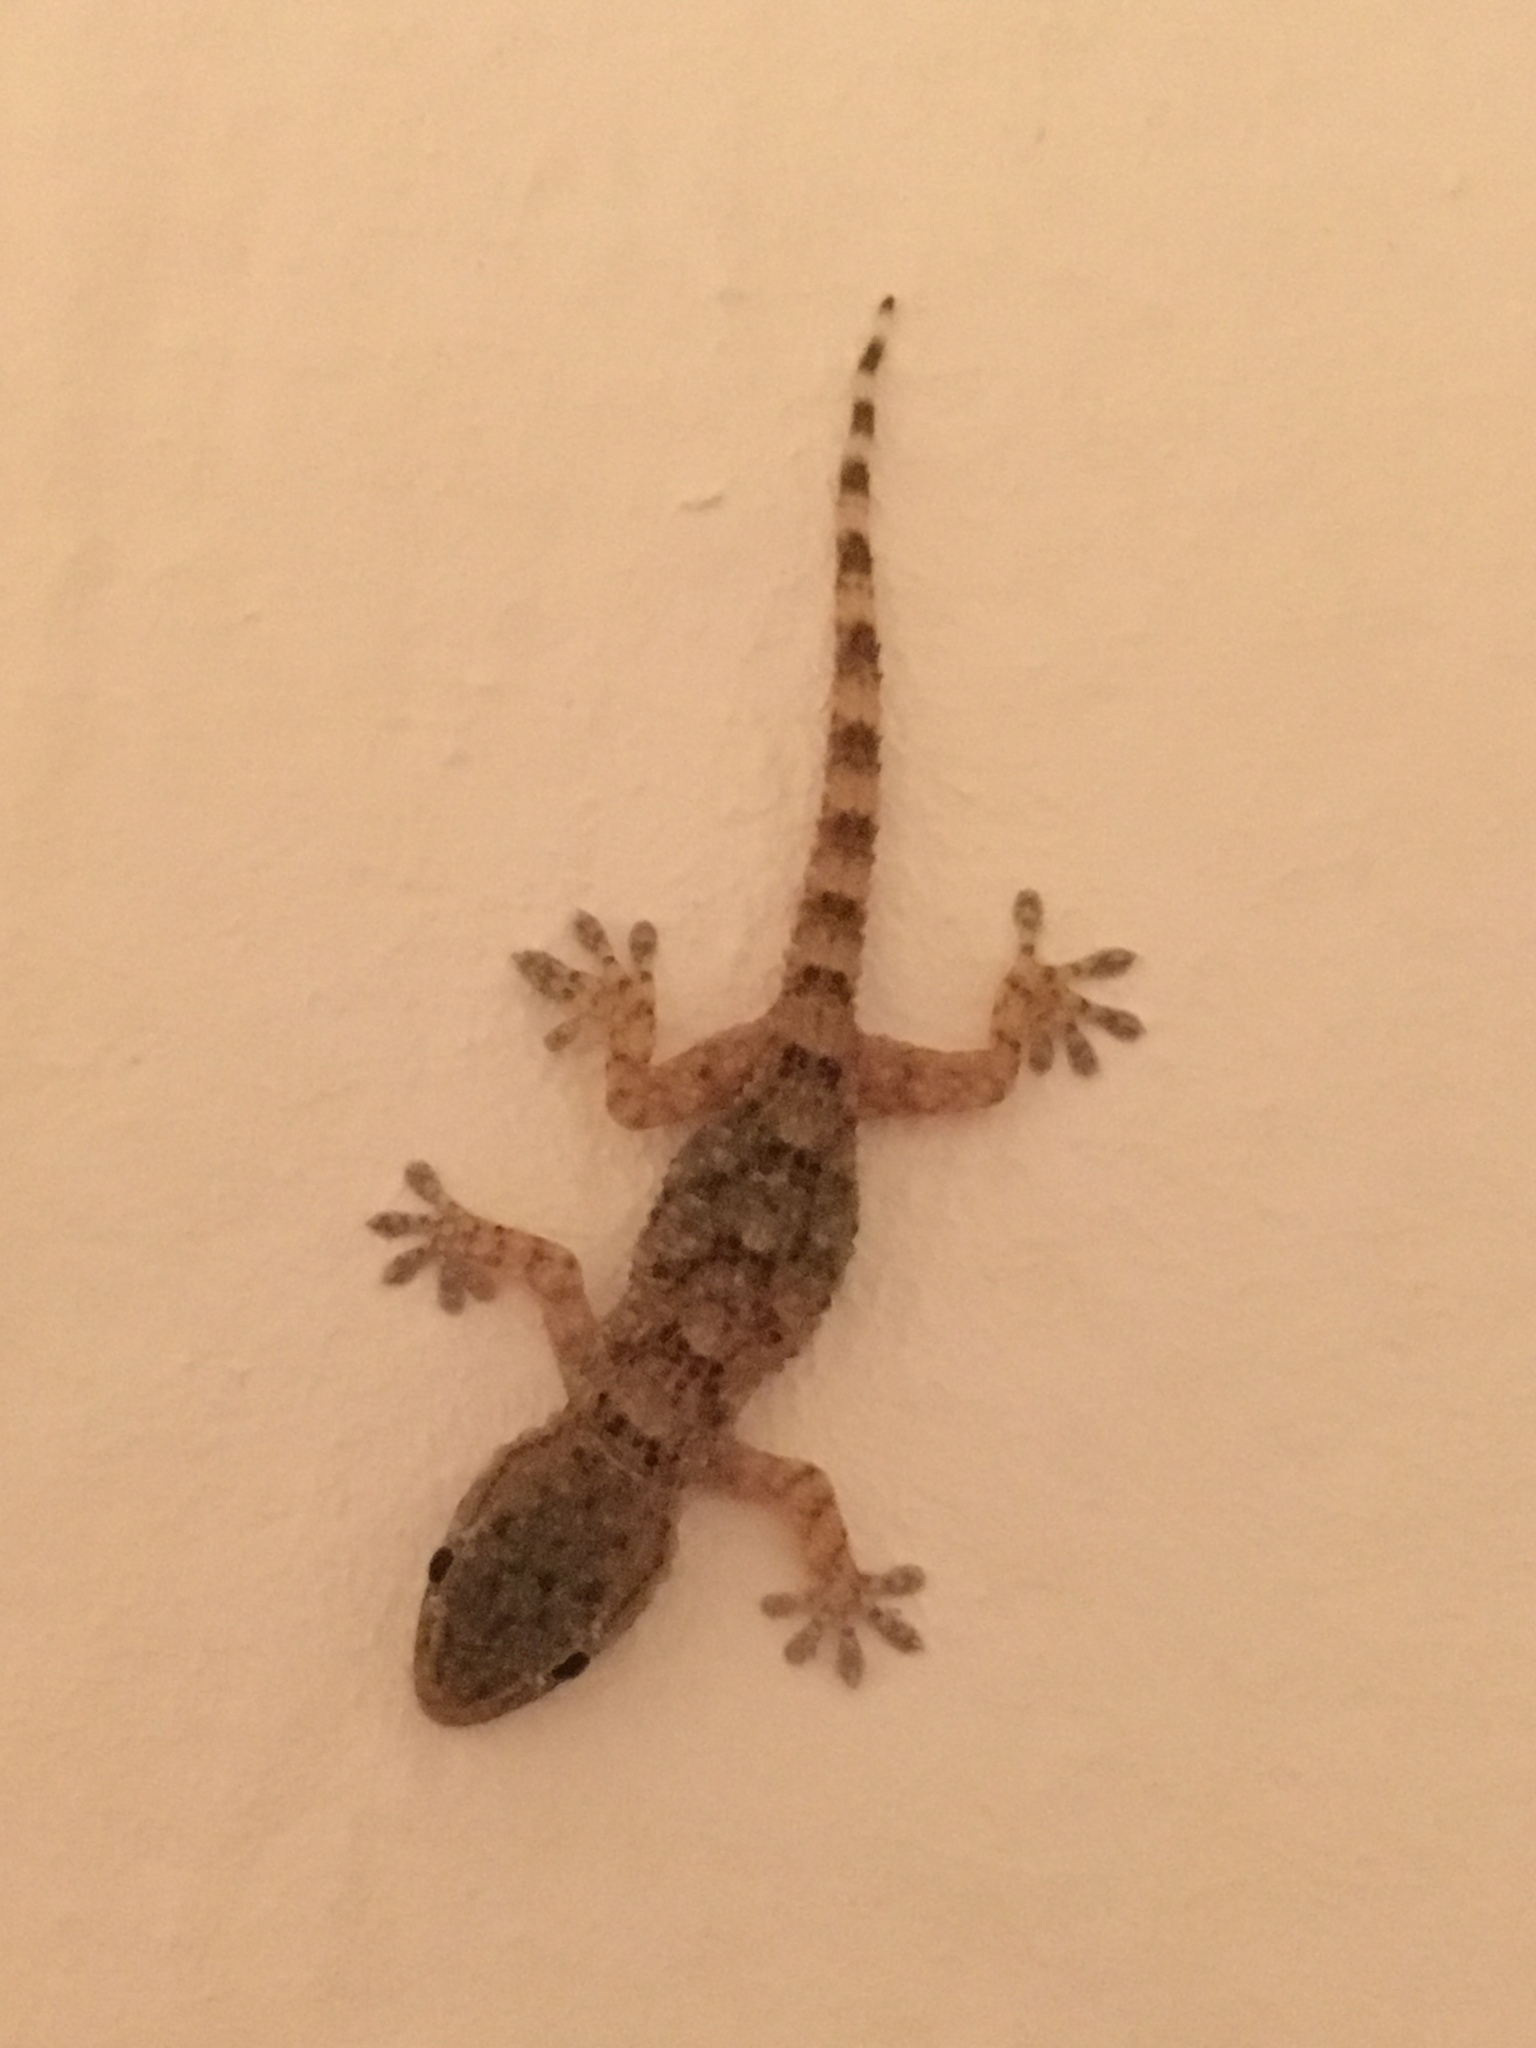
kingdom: Animalia
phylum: Chordata
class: Squamata
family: Phyllodactylidae
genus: Tarentola
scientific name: Tarentola mauritanica
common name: Moorish gecko
